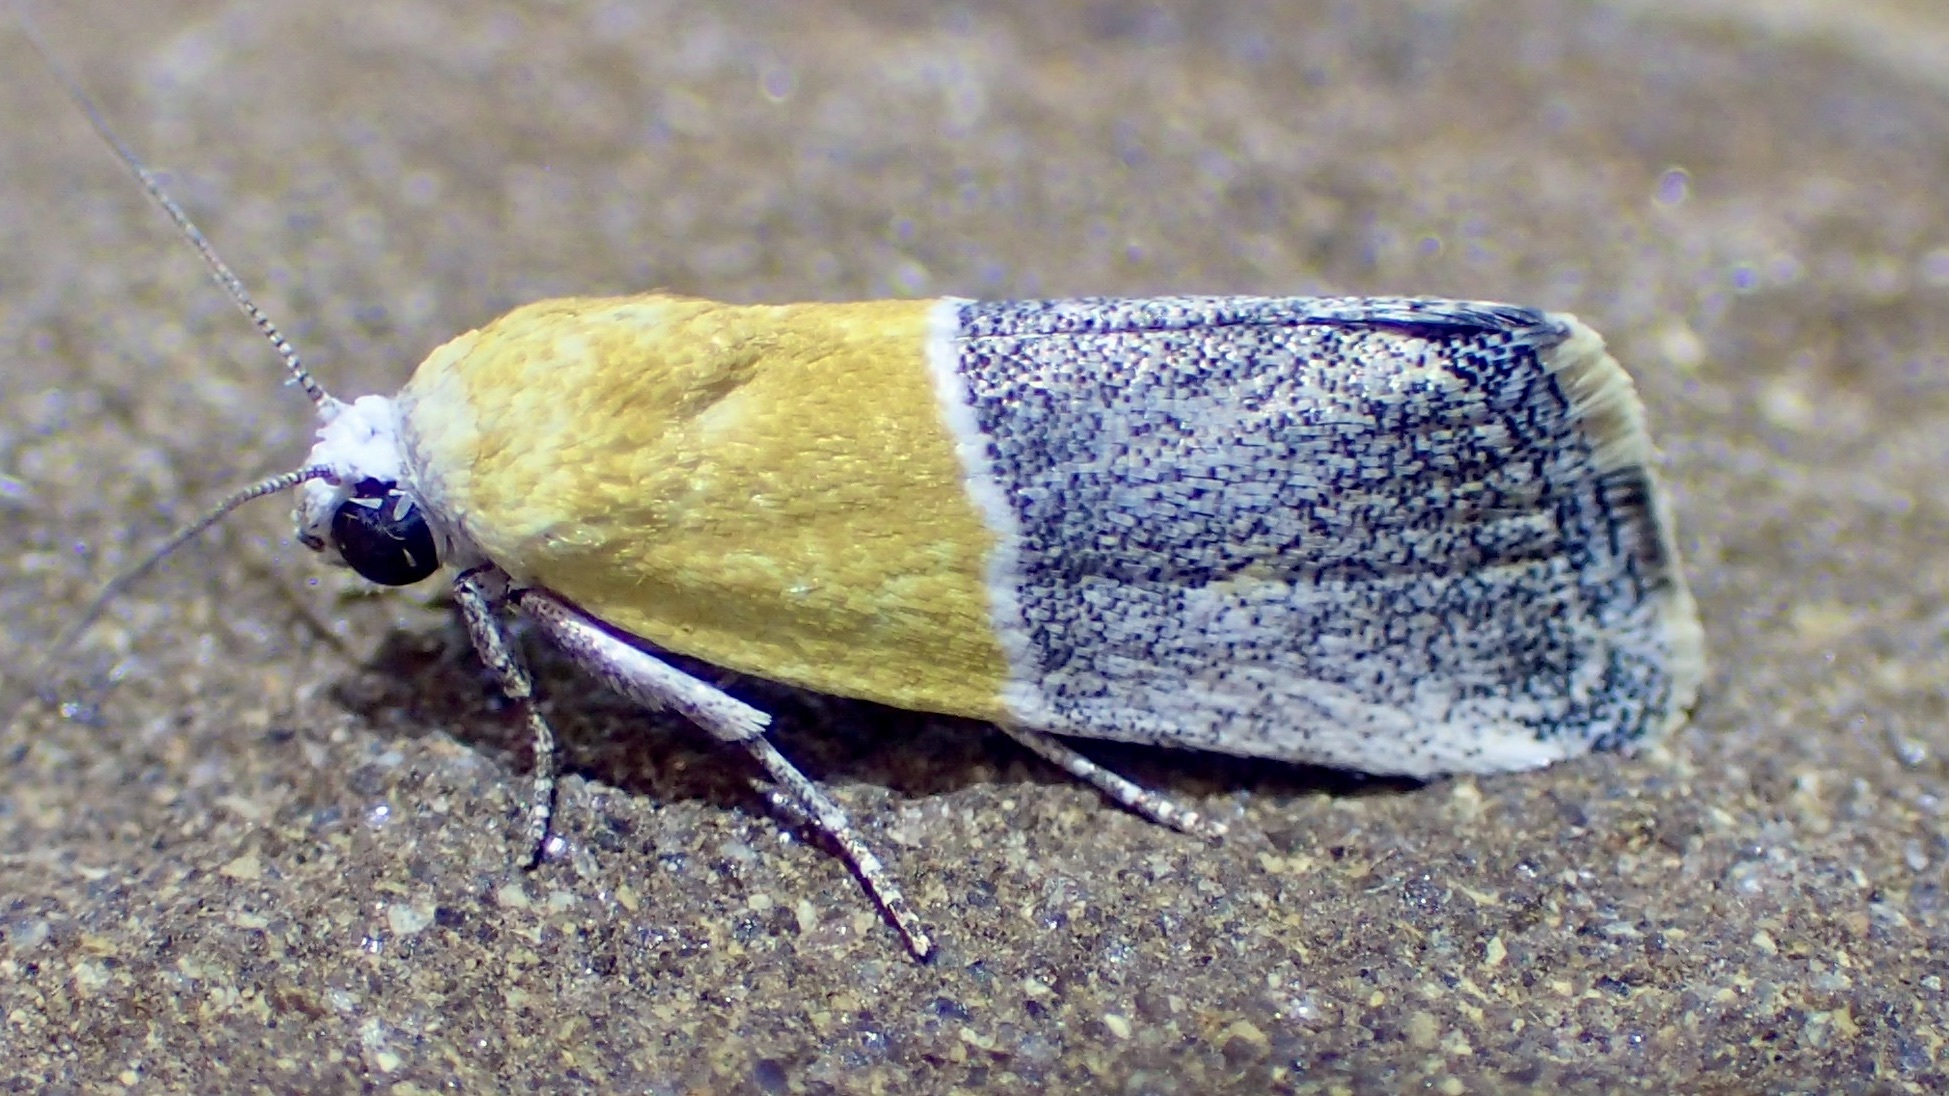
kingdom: Animalia
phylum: Arthropoda
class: Insecta
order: Lepidoptera
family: Noctuidae
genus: Acontia
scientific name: Acontia clausula
